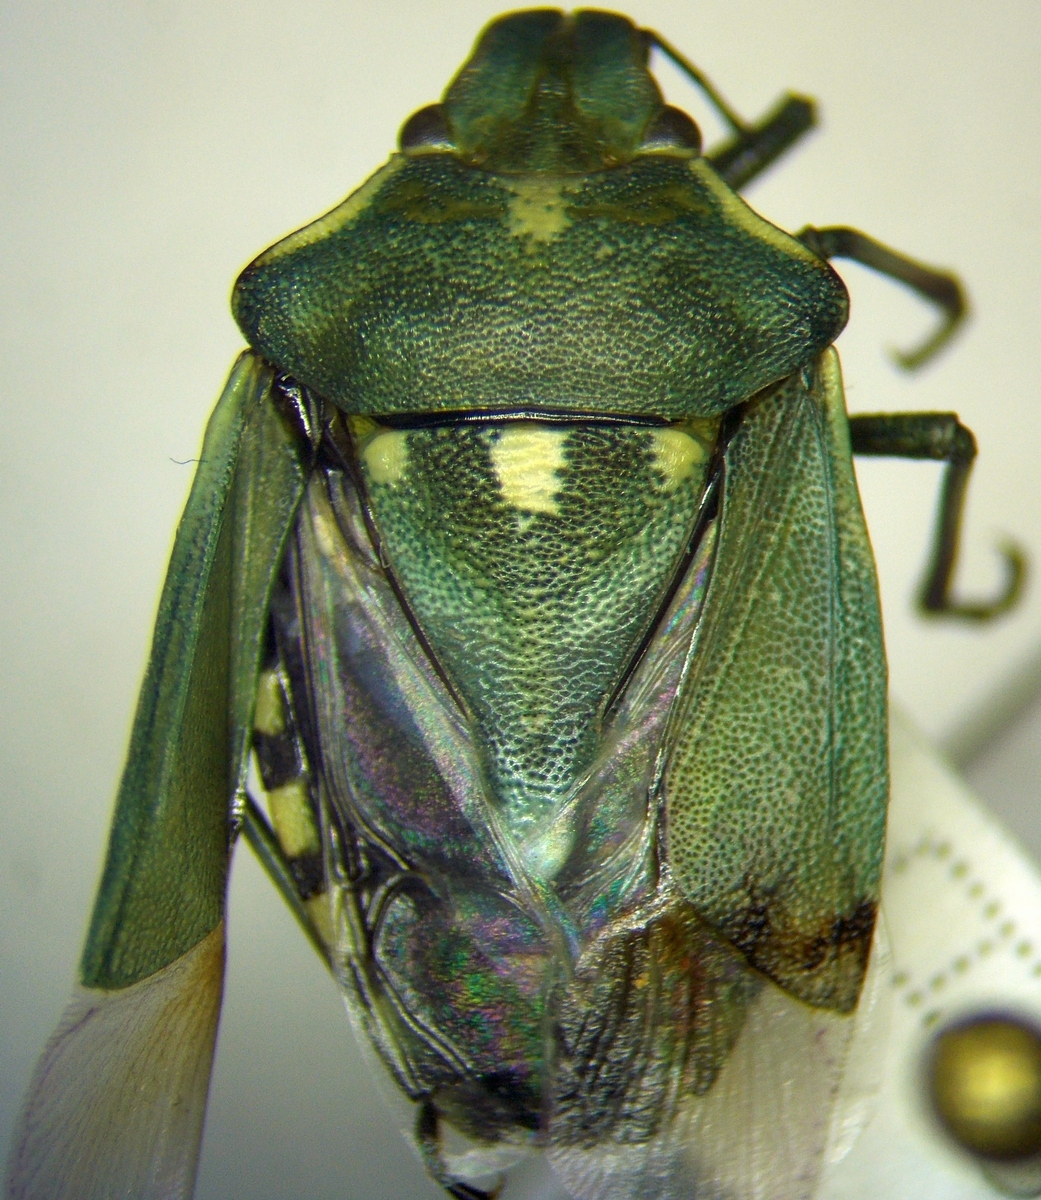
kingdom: Animalia
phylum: Arthropoda
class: Insecta
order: Hemiptera
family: Pentatomidae
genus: Brachynema
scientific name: Brachynema
